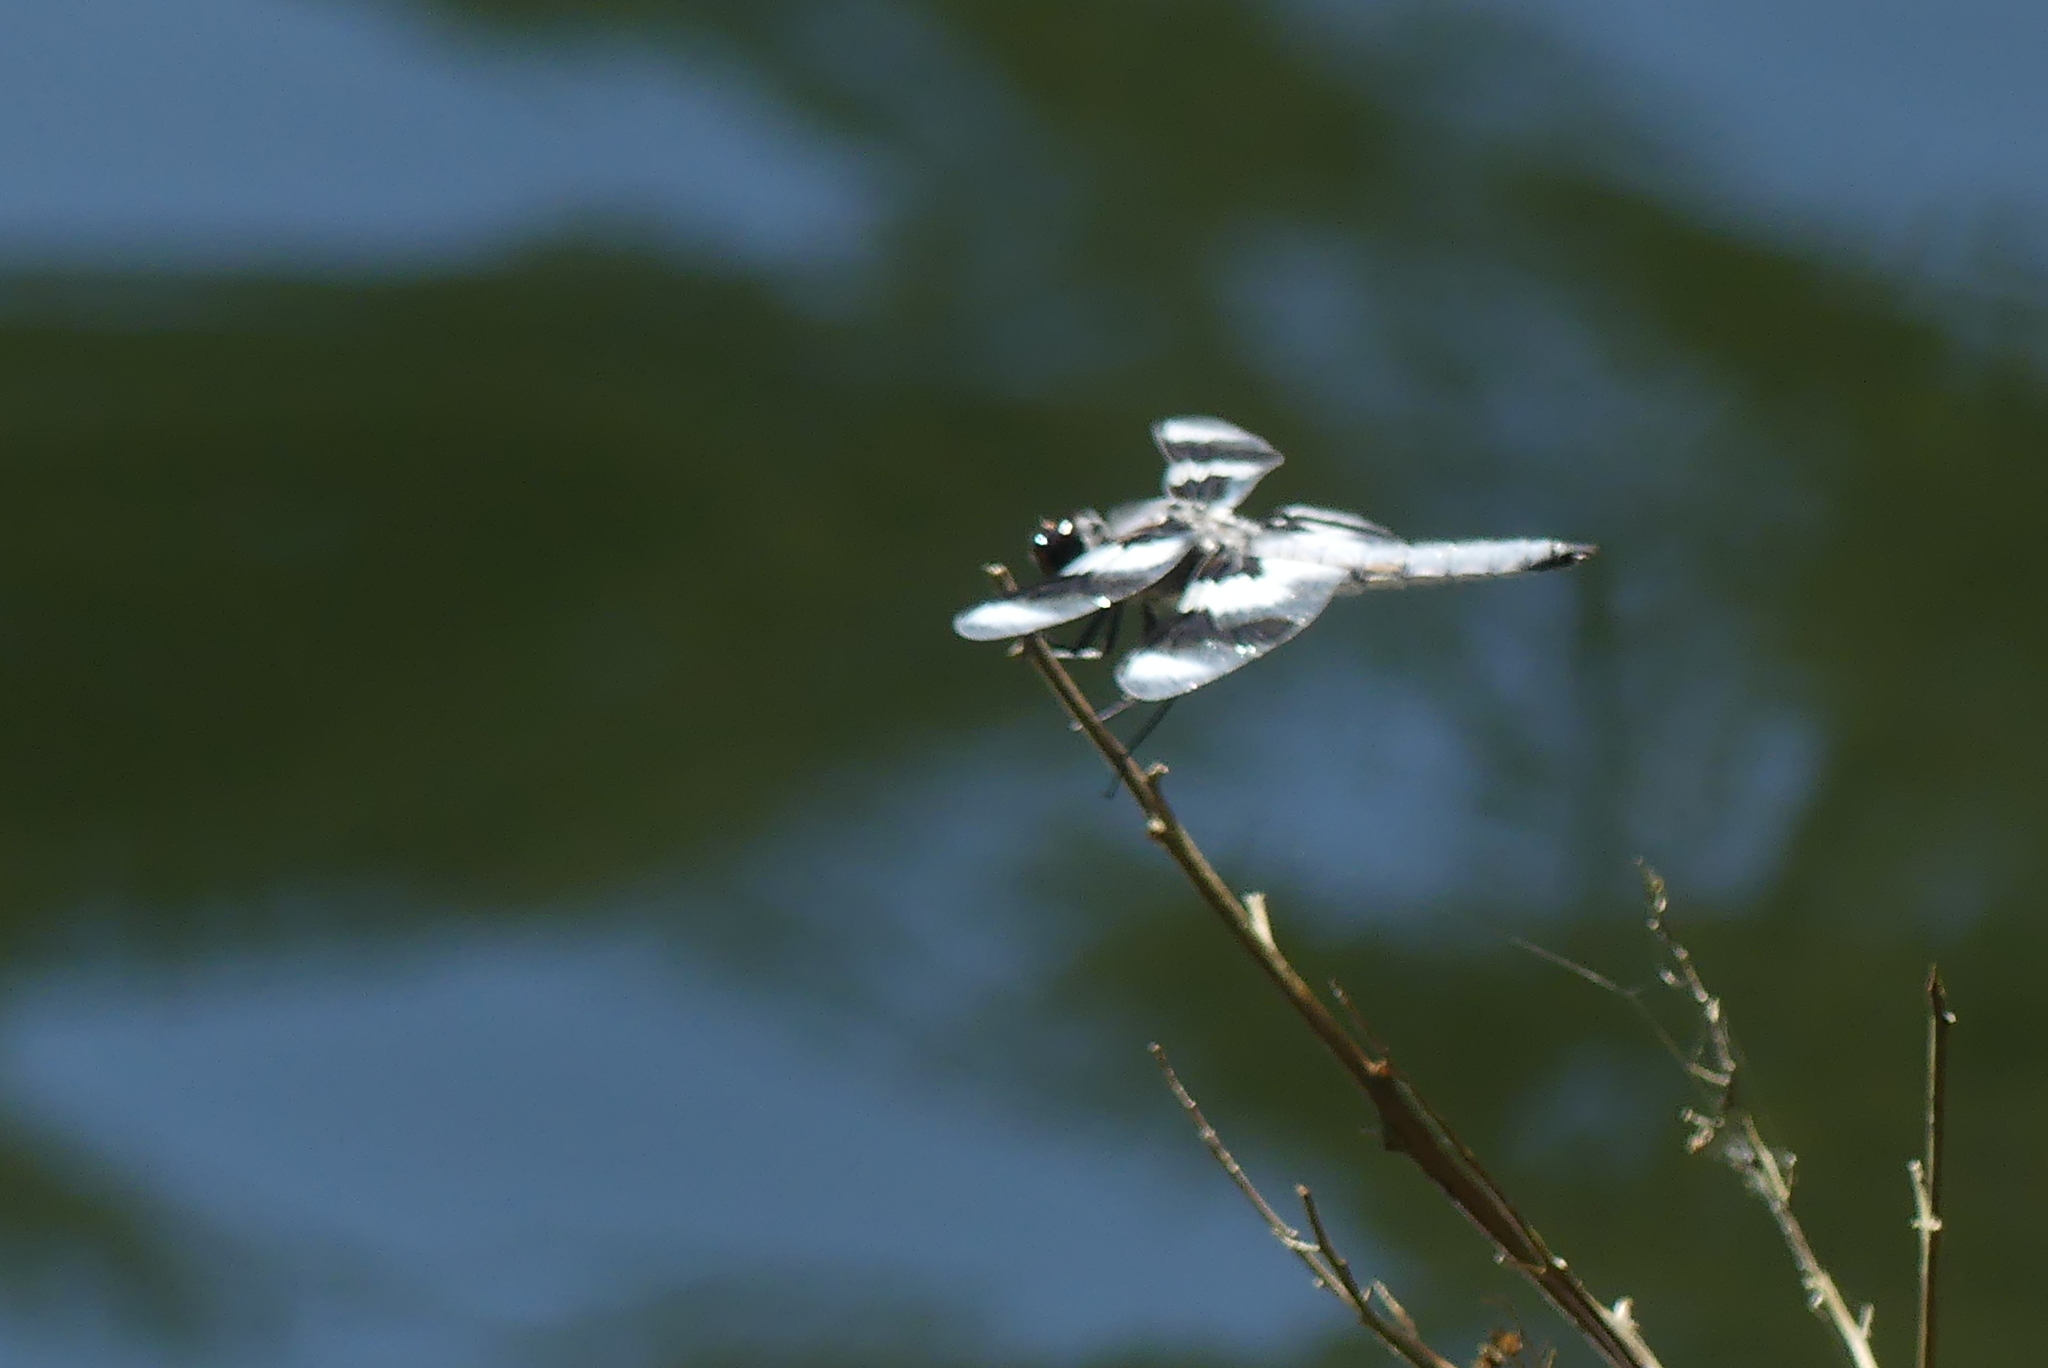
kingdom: Animalia
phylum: Arthropoda
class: Insecta
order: Odonata
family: Libellulidae
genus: Libellula
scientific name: Libellula forensis
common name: Eight-spotted skimmer
